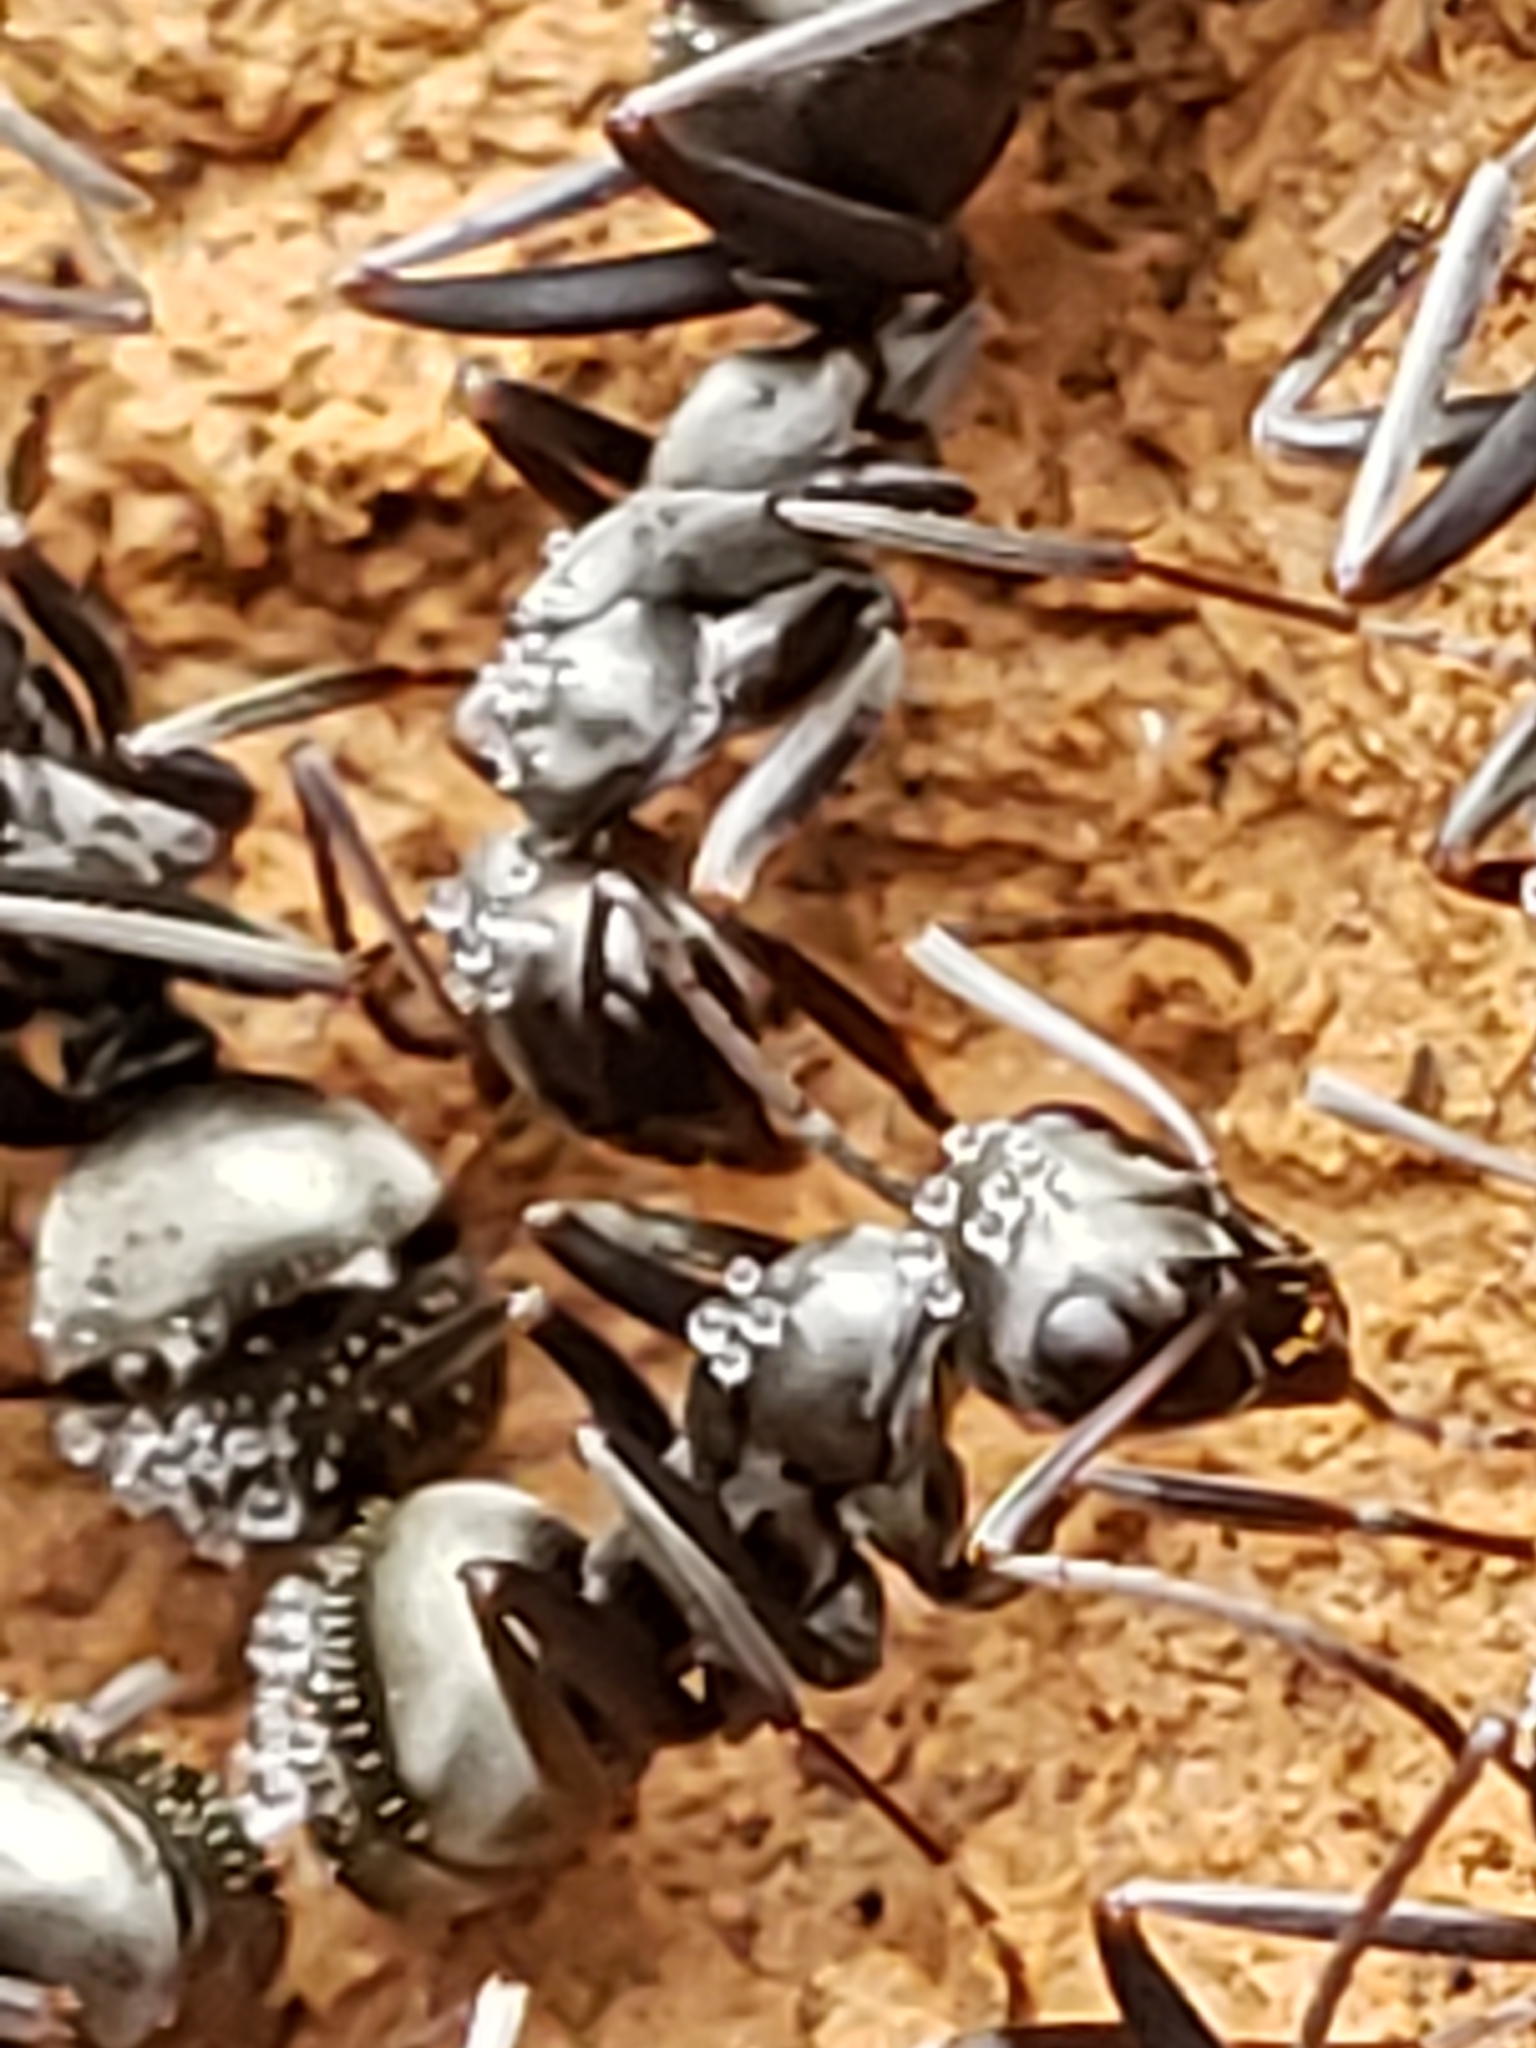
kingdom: Animalia
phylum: Arthropoda
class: Insecta
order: Hymenoptera
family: Formicidae
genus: Formica
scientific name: Formica subsericea
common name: Silky field ant
